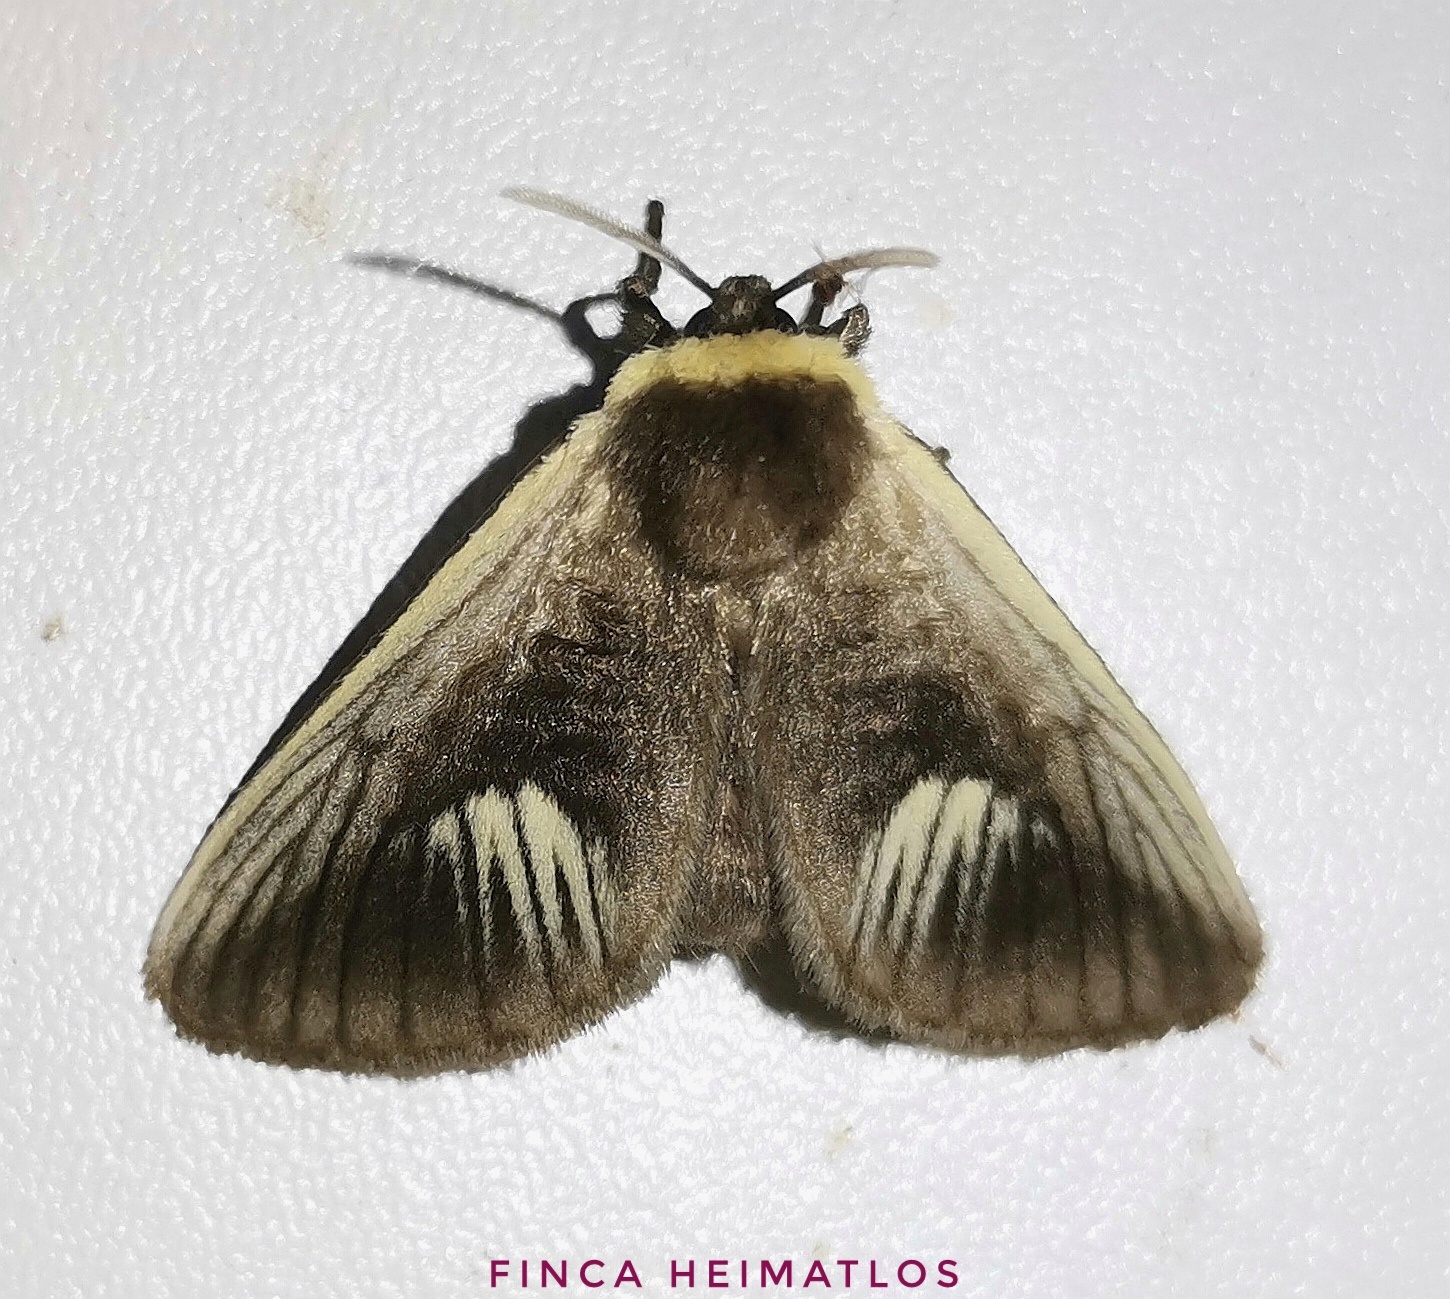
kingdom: Animalia
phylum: Arthropoda
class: Insecta
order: Lepidoptera
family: Megalopygidae
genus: Podalia
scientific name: Podalia intermaculata
